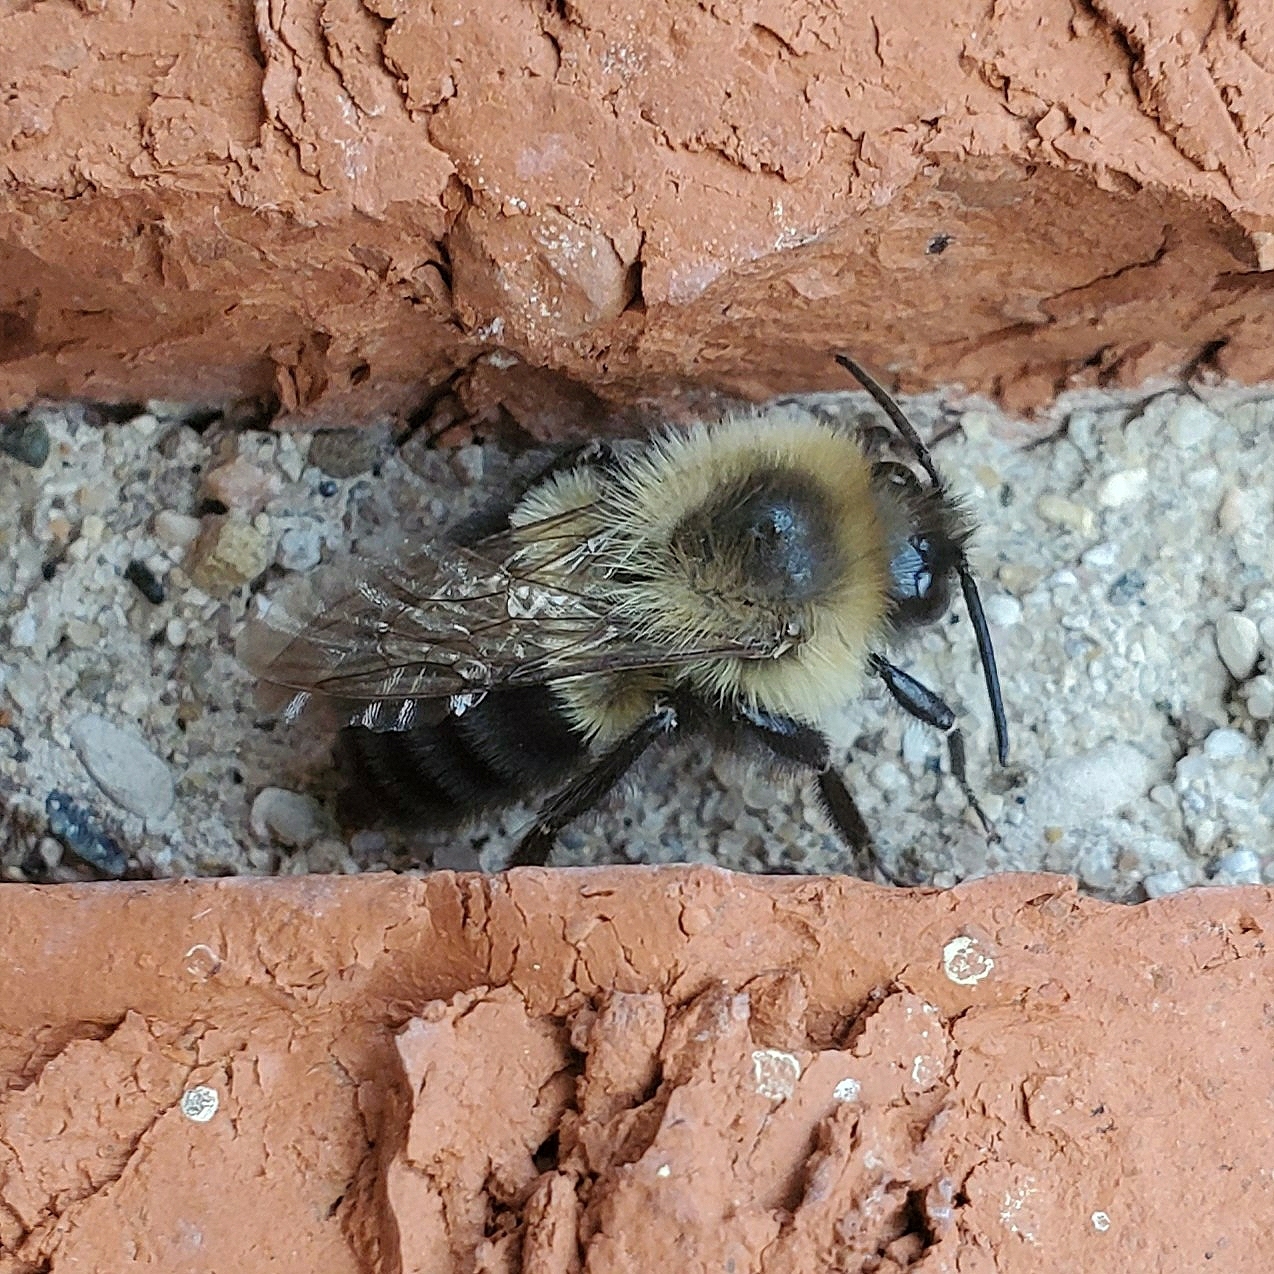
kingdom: Animalia
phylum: Arthropoda
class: Insecta
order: Hymenoptera
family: Apidae
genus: Bombus
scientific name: Bombus impatiens
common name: Common eastern bumble bee
